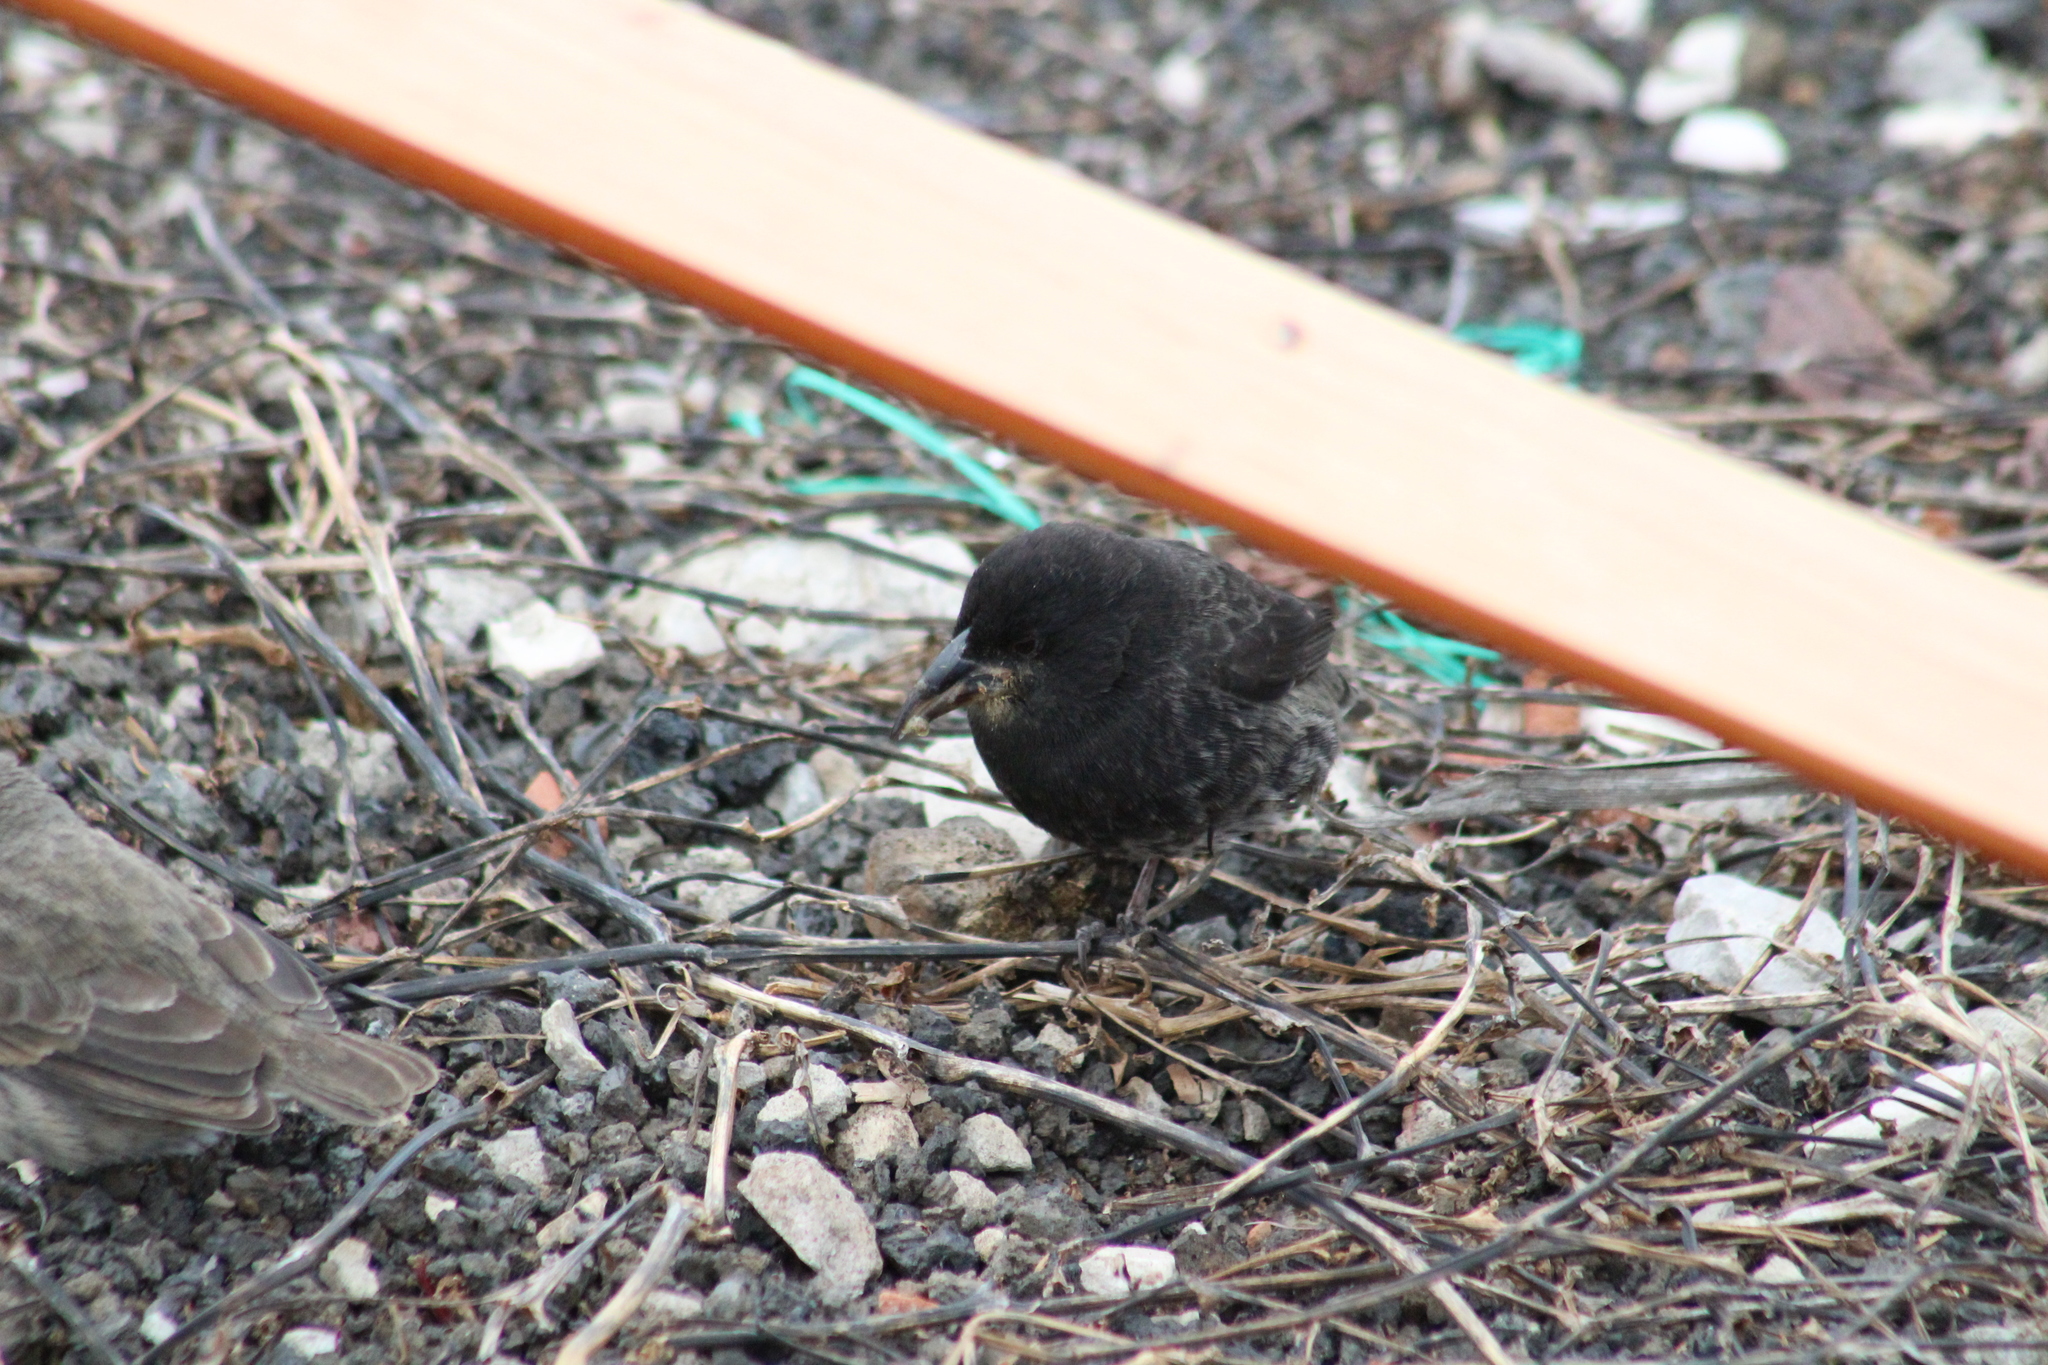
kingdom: Animalia
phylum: Chordata
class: Aves
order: Passeriformes
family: Thraupidae
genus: Geospiza
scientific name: Geospiza scandens
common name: Common cactus-finch
